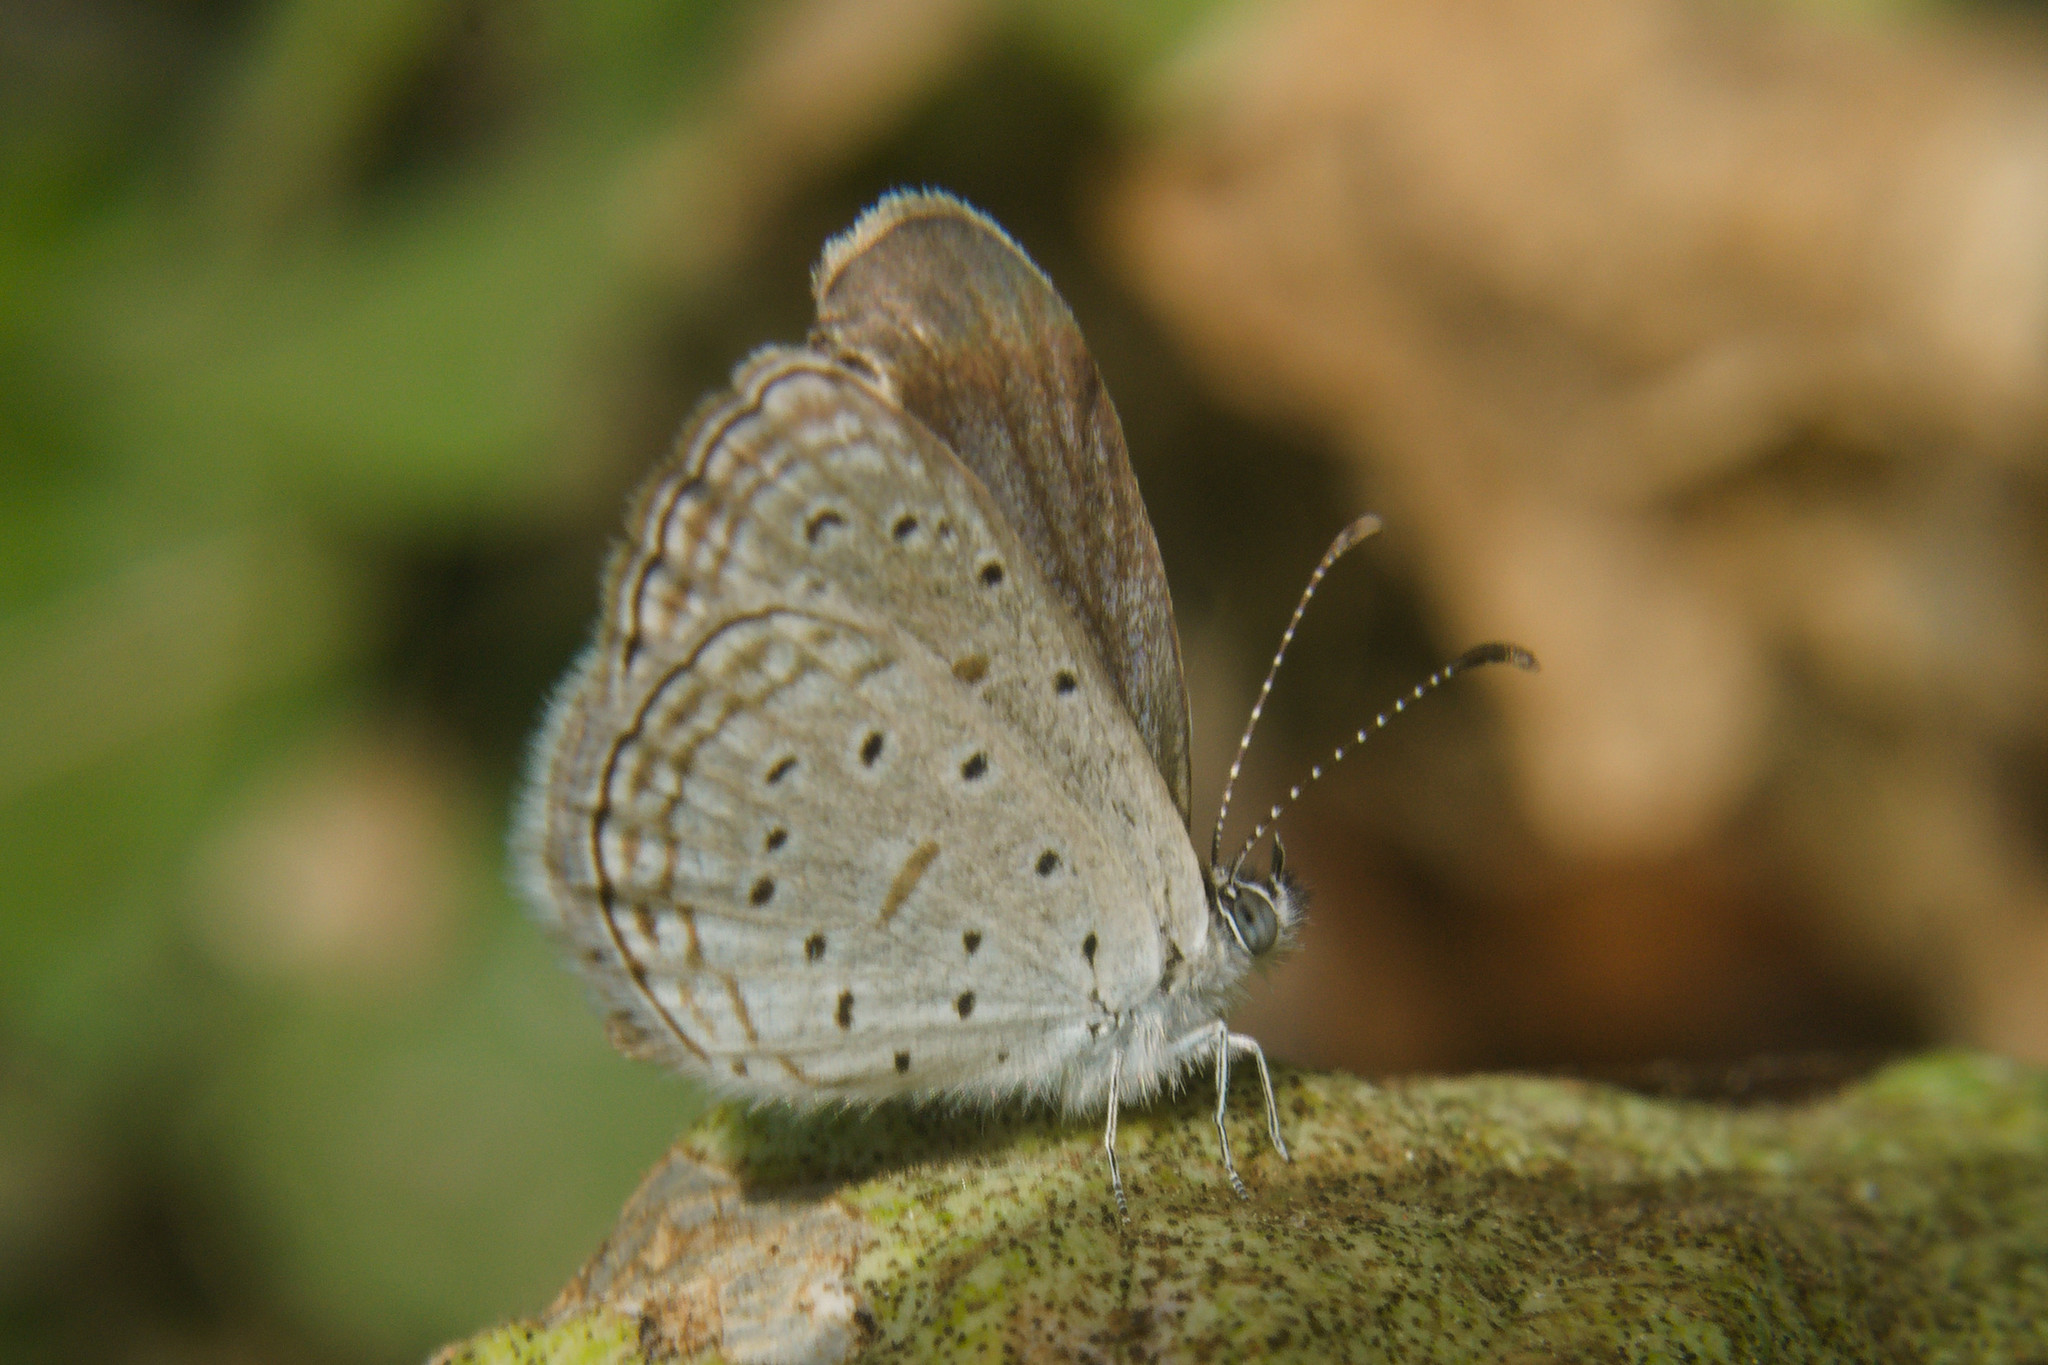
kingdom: Animalia
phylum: Arthropoda
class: Insecta
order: Lepidoptera
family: Lycaenidae
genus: Zizula
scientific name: Zizula hylax
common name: Gaika blue
